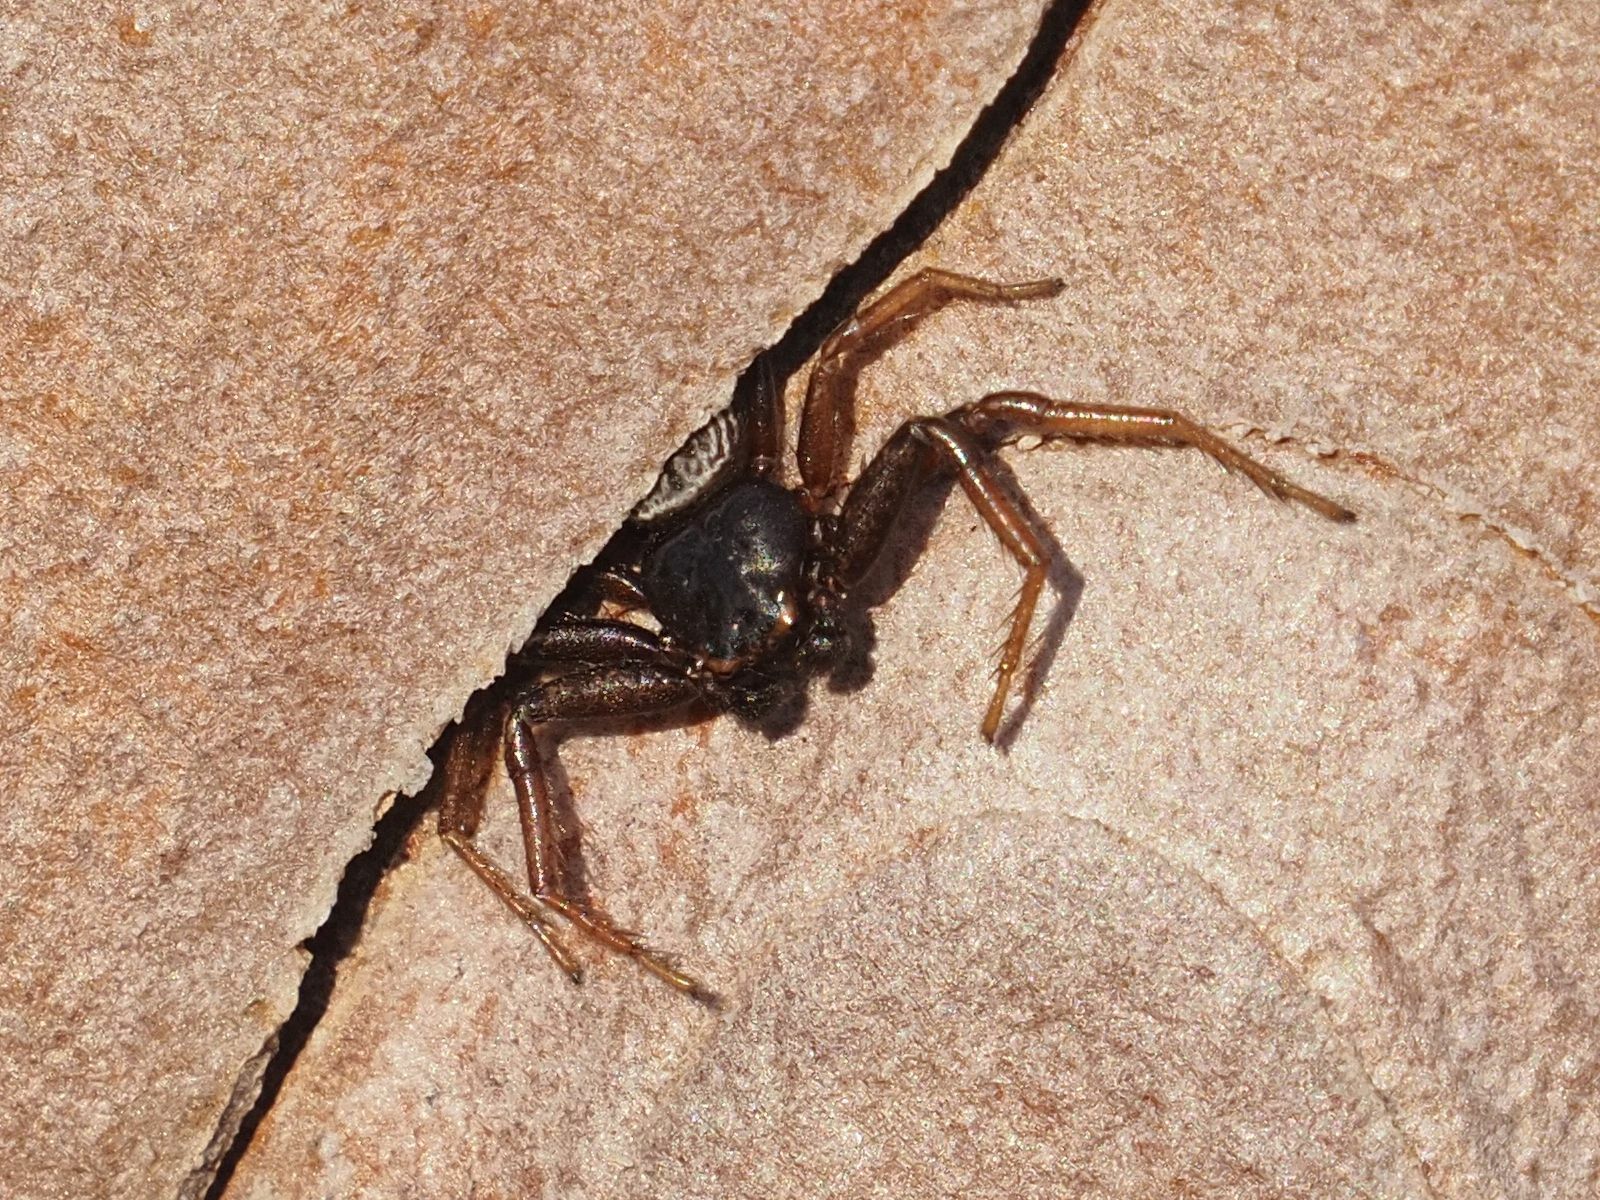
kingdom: Animalia
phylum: Arthropoda
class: Arachnida
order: Araneae
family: Thomisidae
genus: Coriarachne
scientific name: Coriarachne depressa
